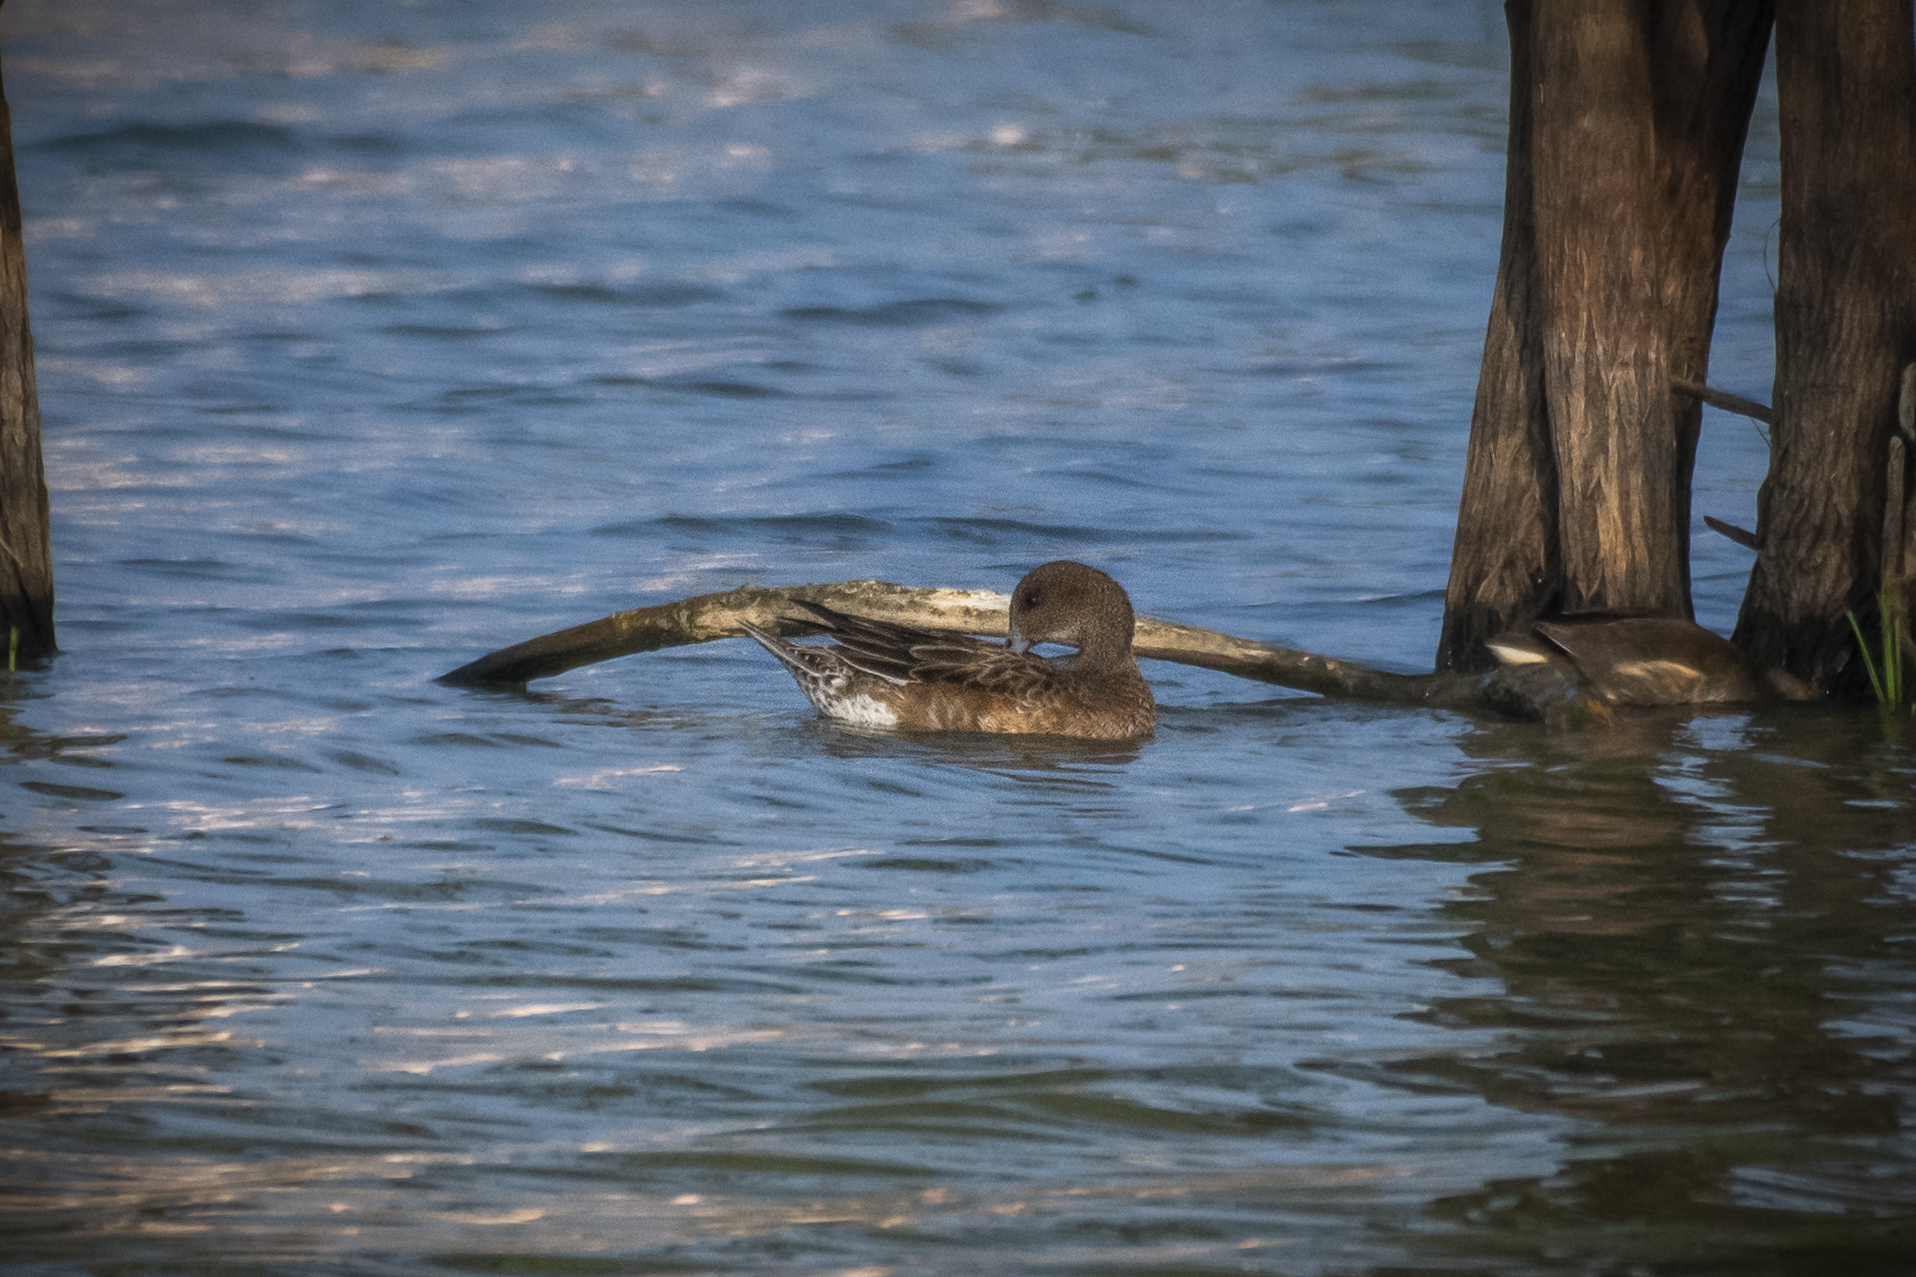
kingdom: Animalia
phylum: Chordata
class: Aves
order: Anseriformes
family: Anatidae
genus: Mareca
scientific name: Mareca penelope
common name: Eurasian wigeon
